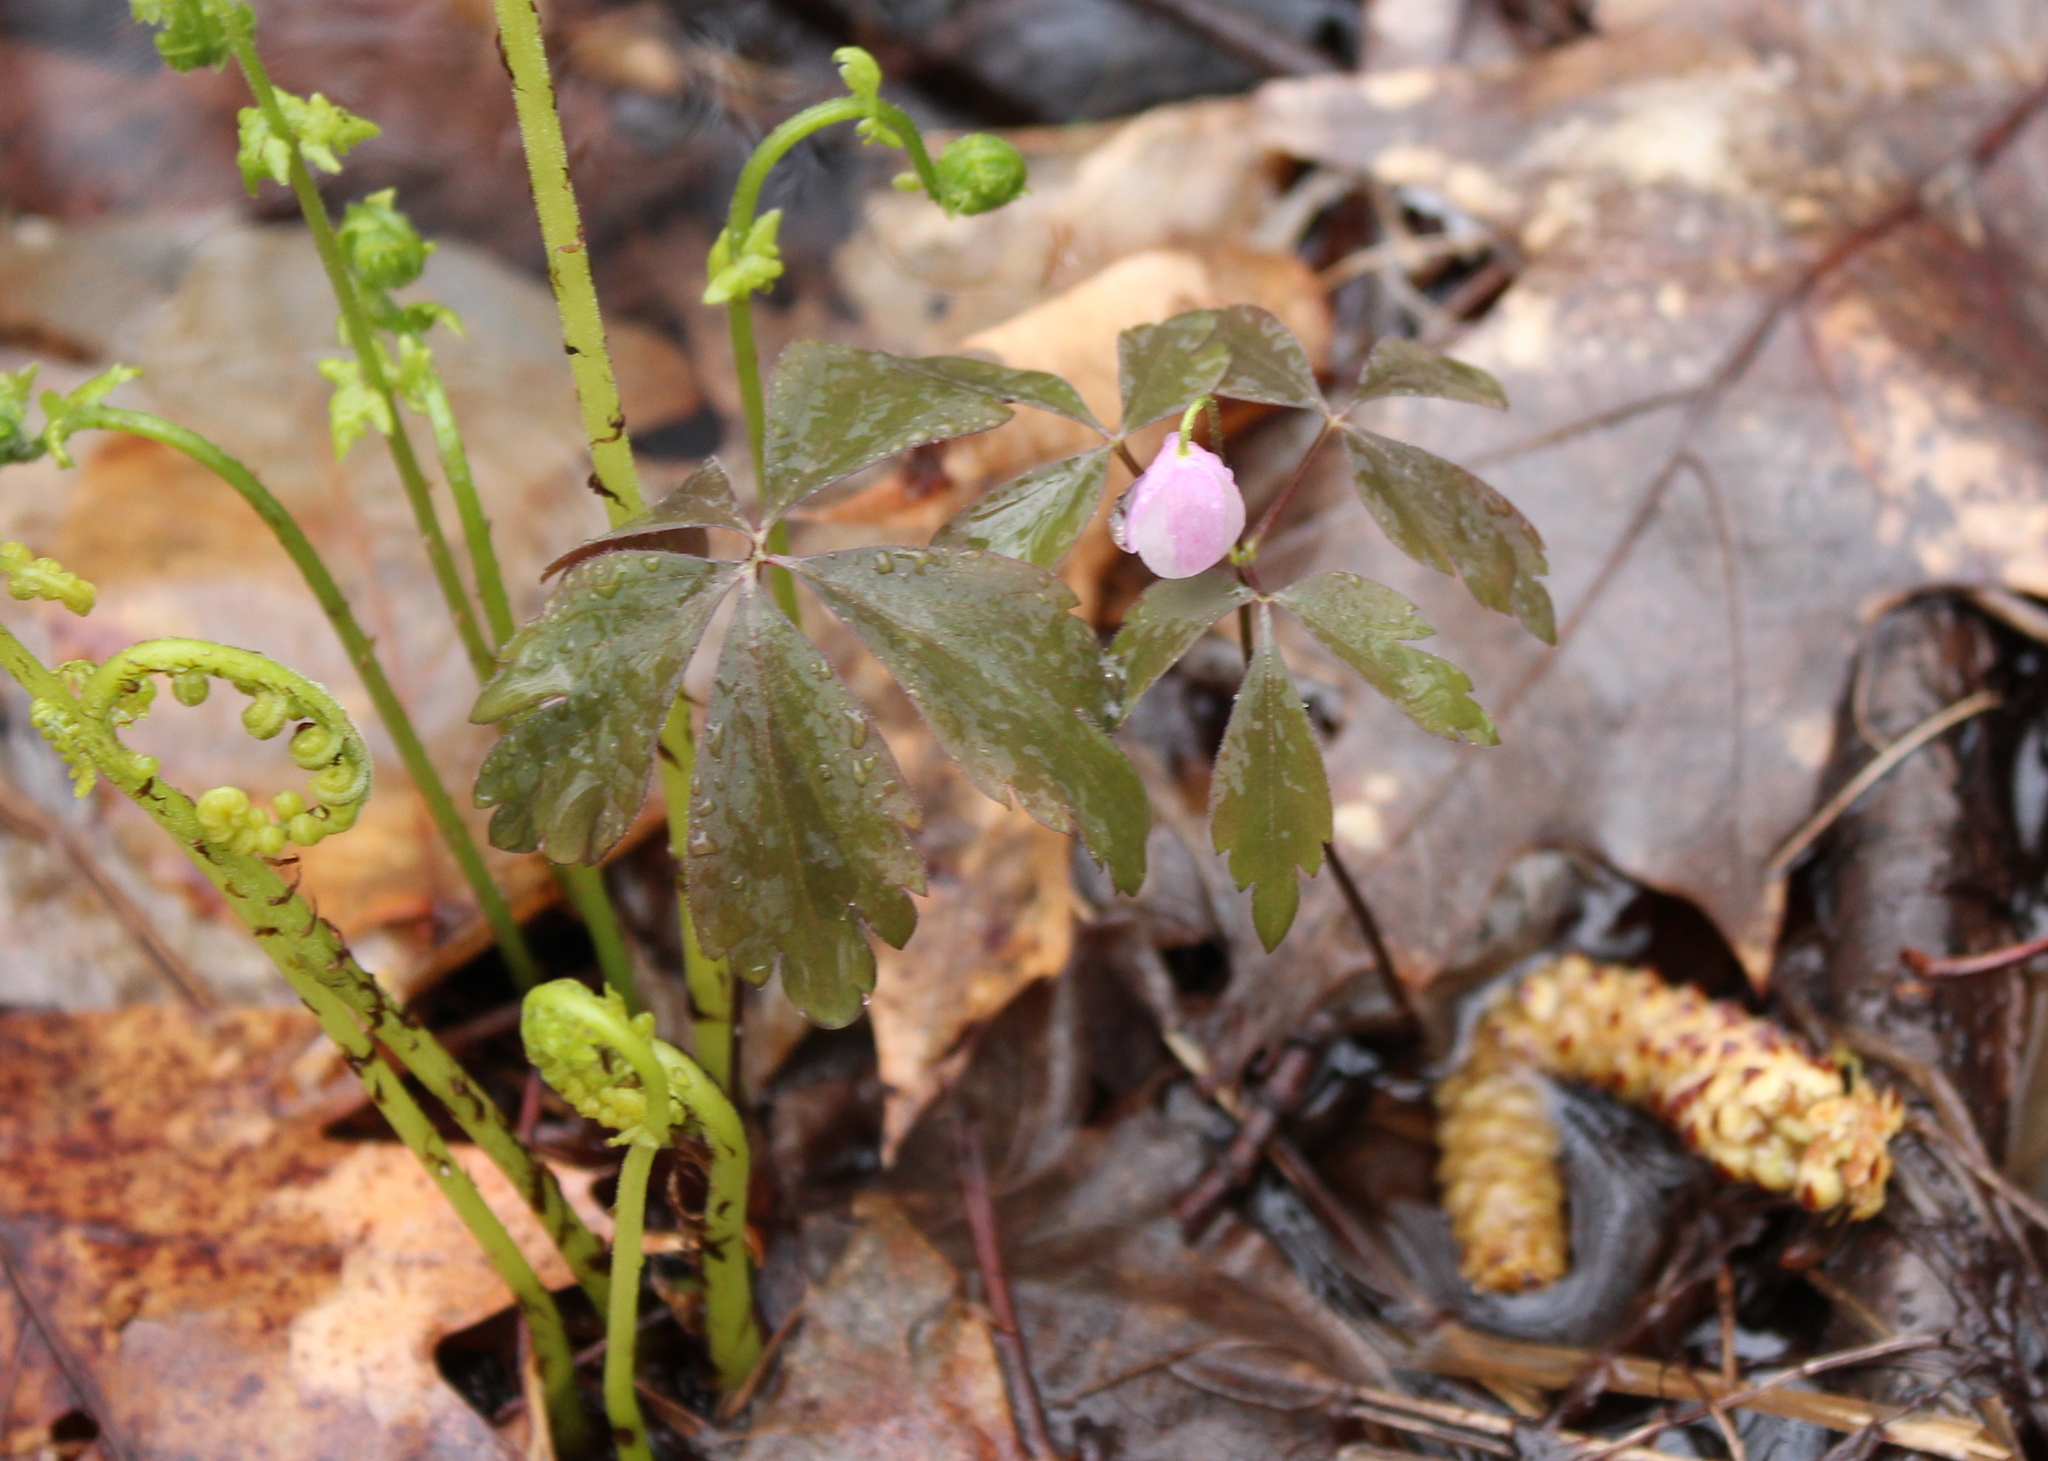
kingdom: Plantae
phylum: Tracheophyta
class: Magnoliopsida
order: Ranunculales
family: Ranunculaceae
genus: Anemone
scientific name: Anemone quinquefolia
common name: Wood anemone
